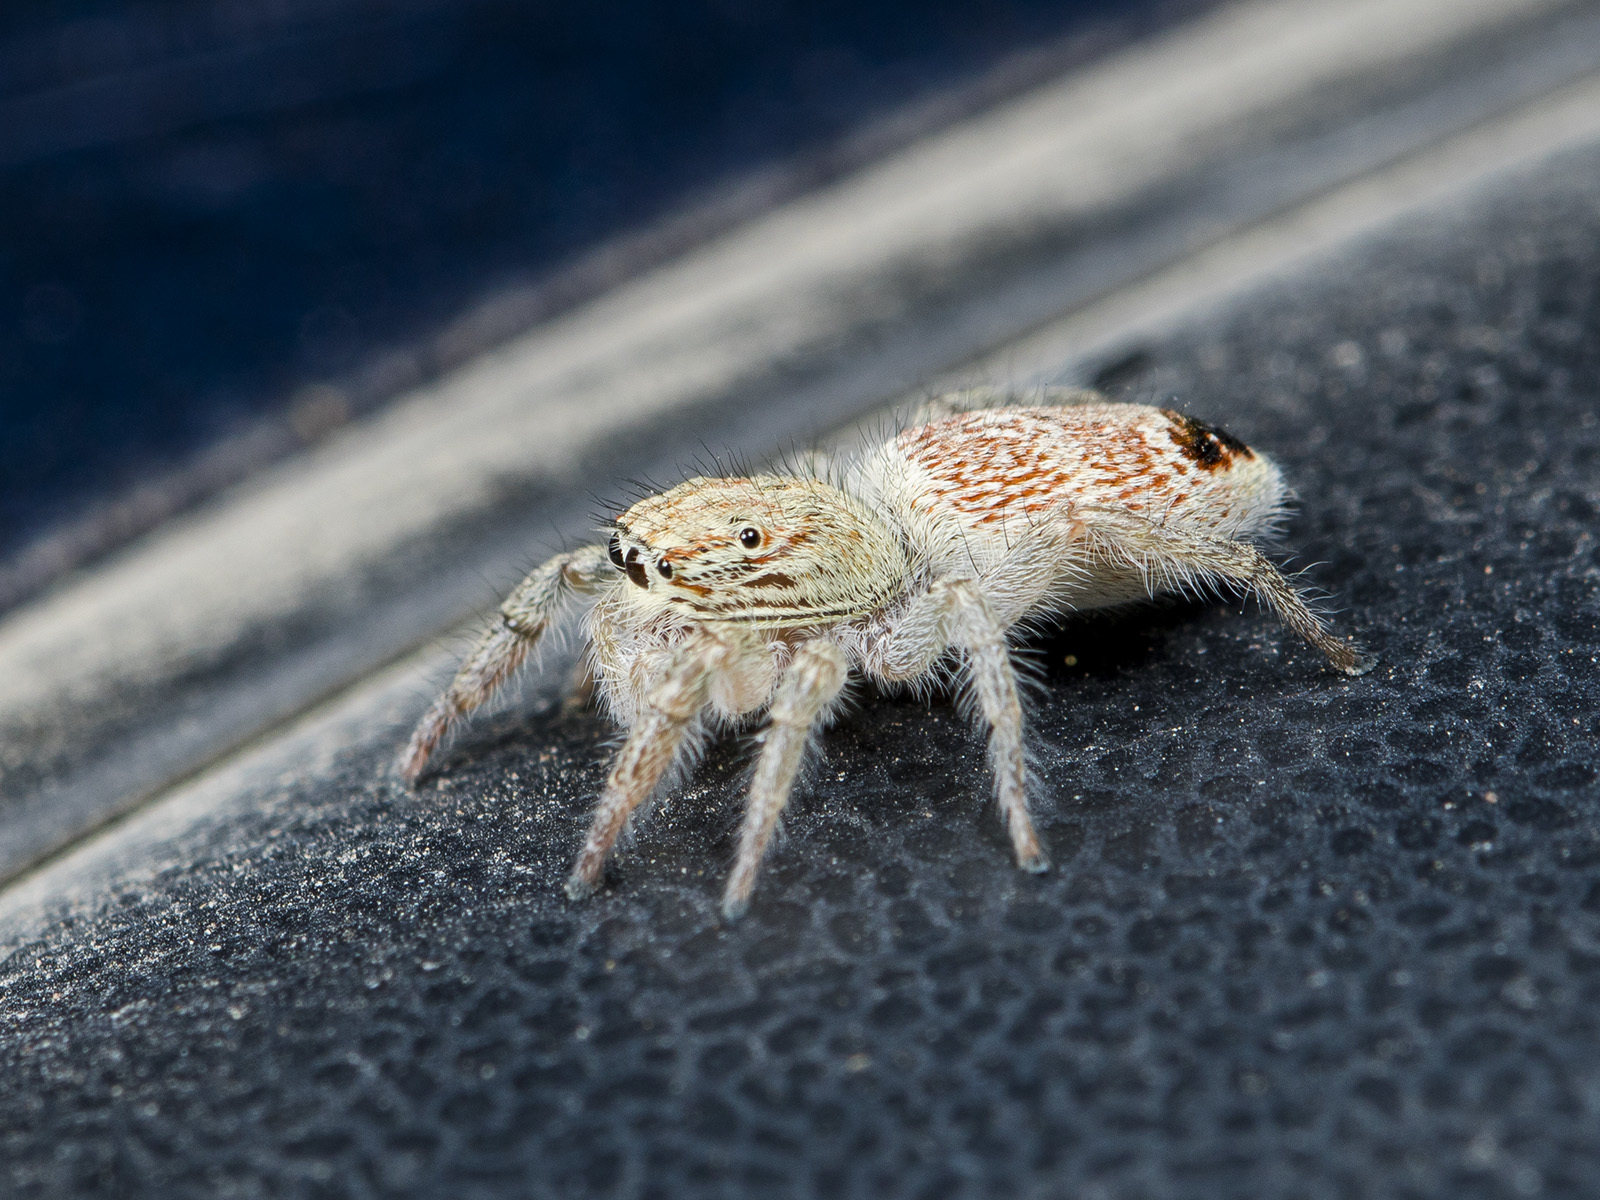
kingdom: Animalia
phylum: Arthropoda
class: Arachnida
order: Araneae
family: Salticidae
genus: Rudakius
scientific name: Rudakius cinctus
